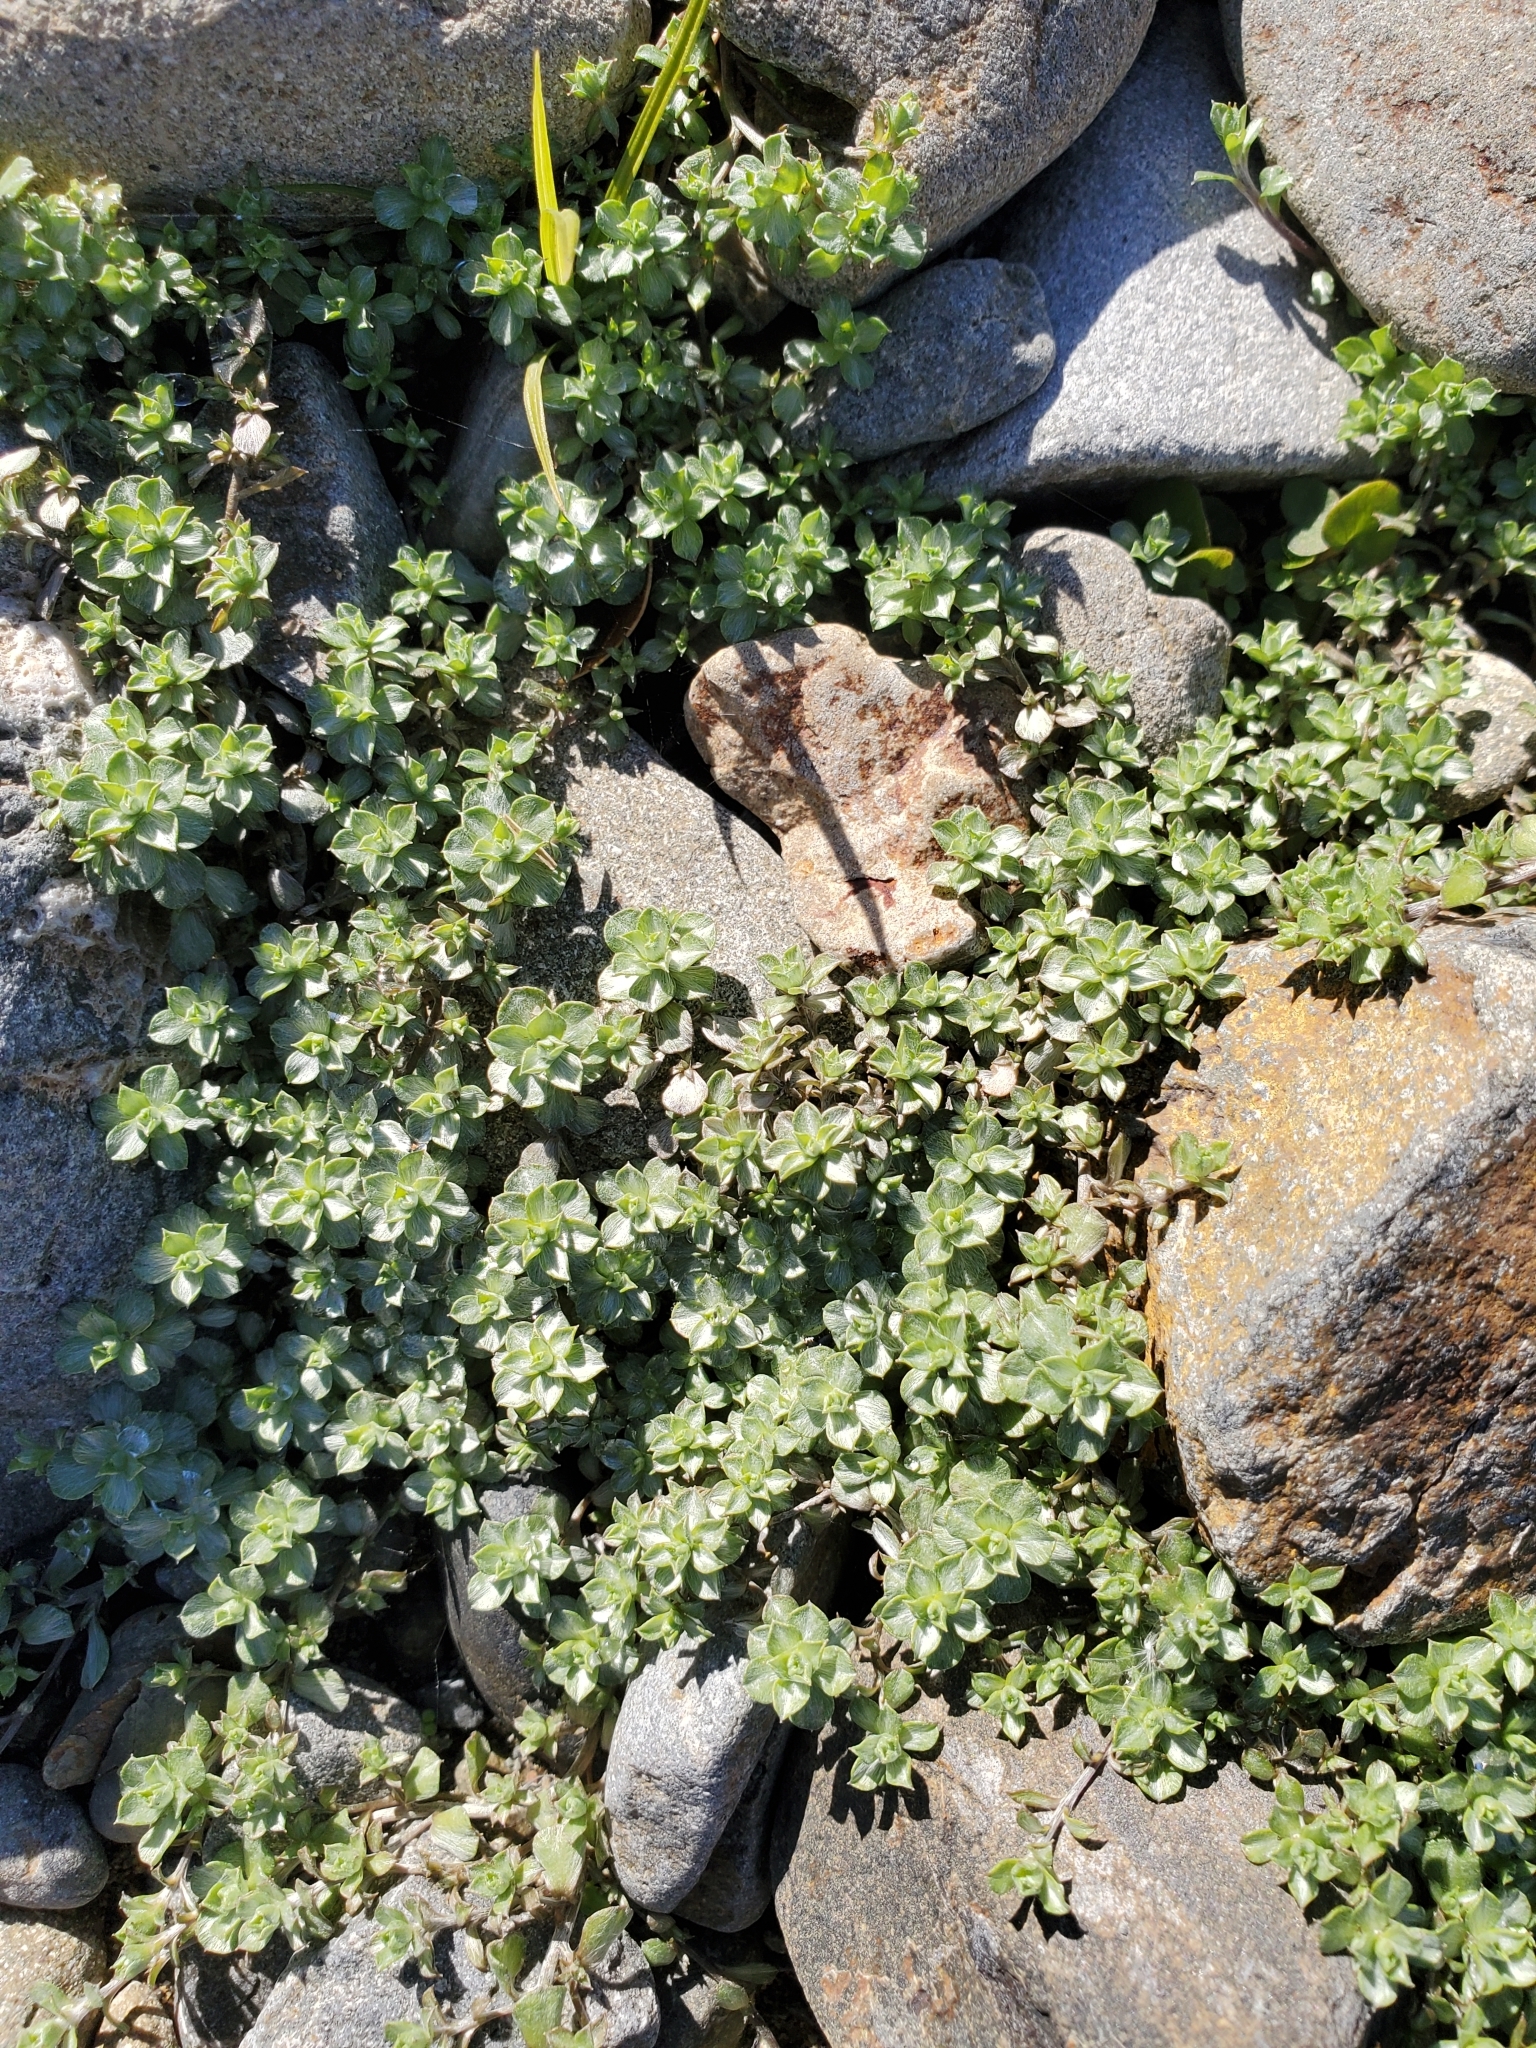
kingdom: Plantae
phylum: Tracheophyta
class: Magnoliopsida
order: Asterales
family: Asteraceae
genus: Raoulia
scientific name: Raoulia hookeri
